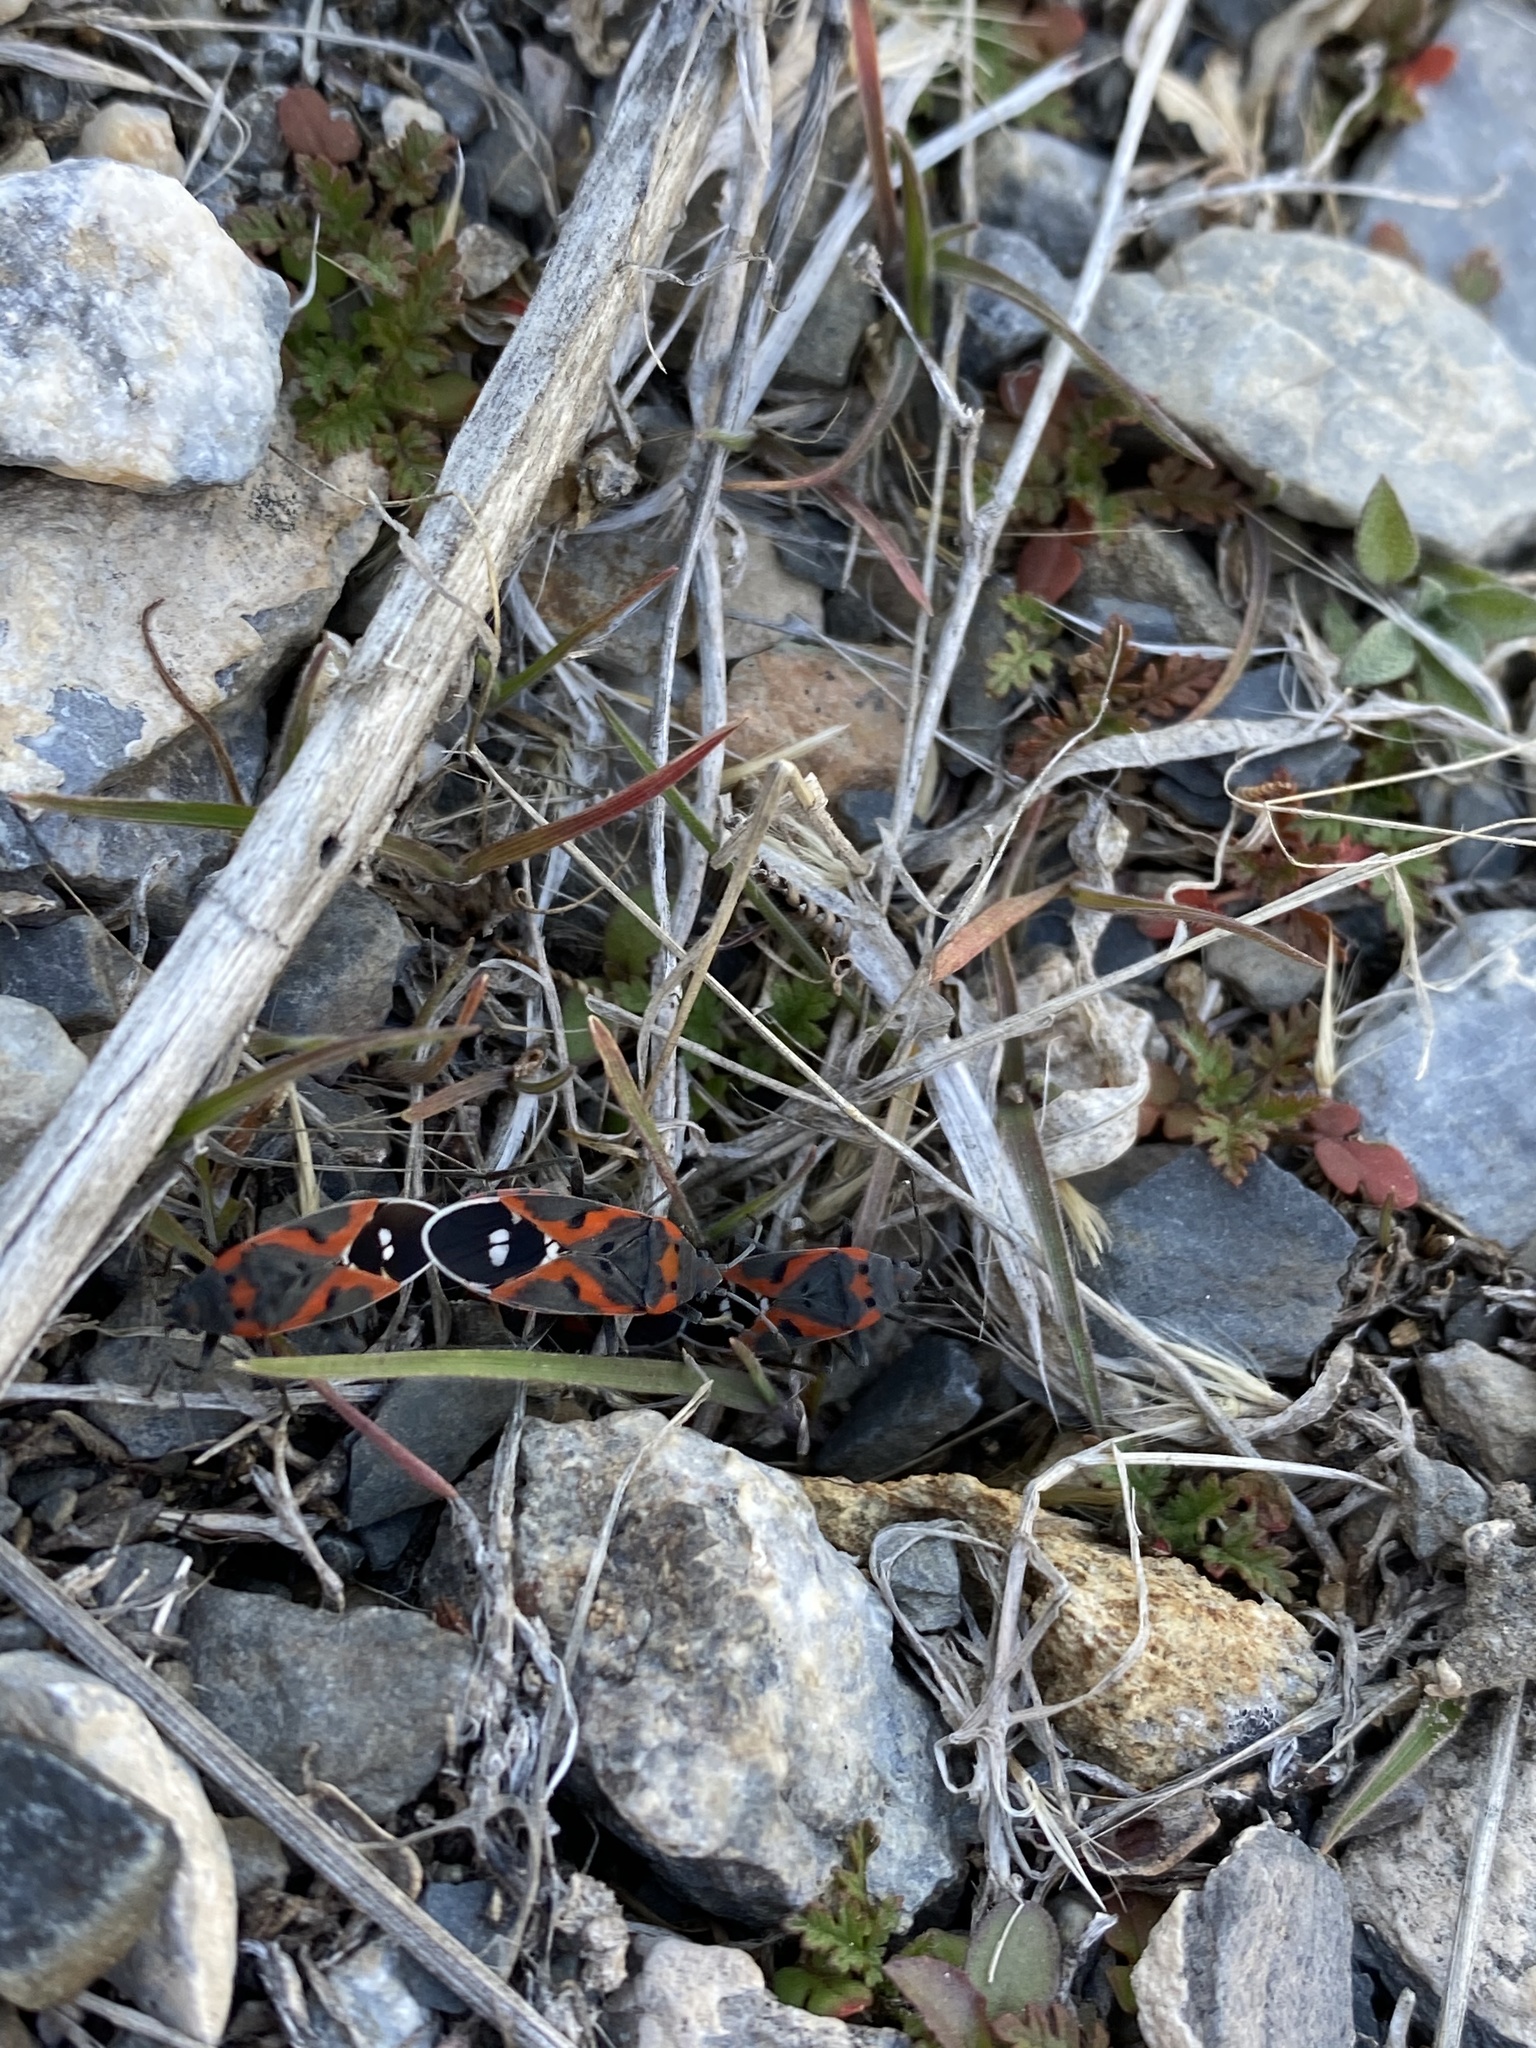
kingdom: Animalia
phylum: Arthropoda
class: Insecta
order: Hemiptera
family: Lygaeidae
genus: Lygaeus
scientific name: Lygaeus kalmii
